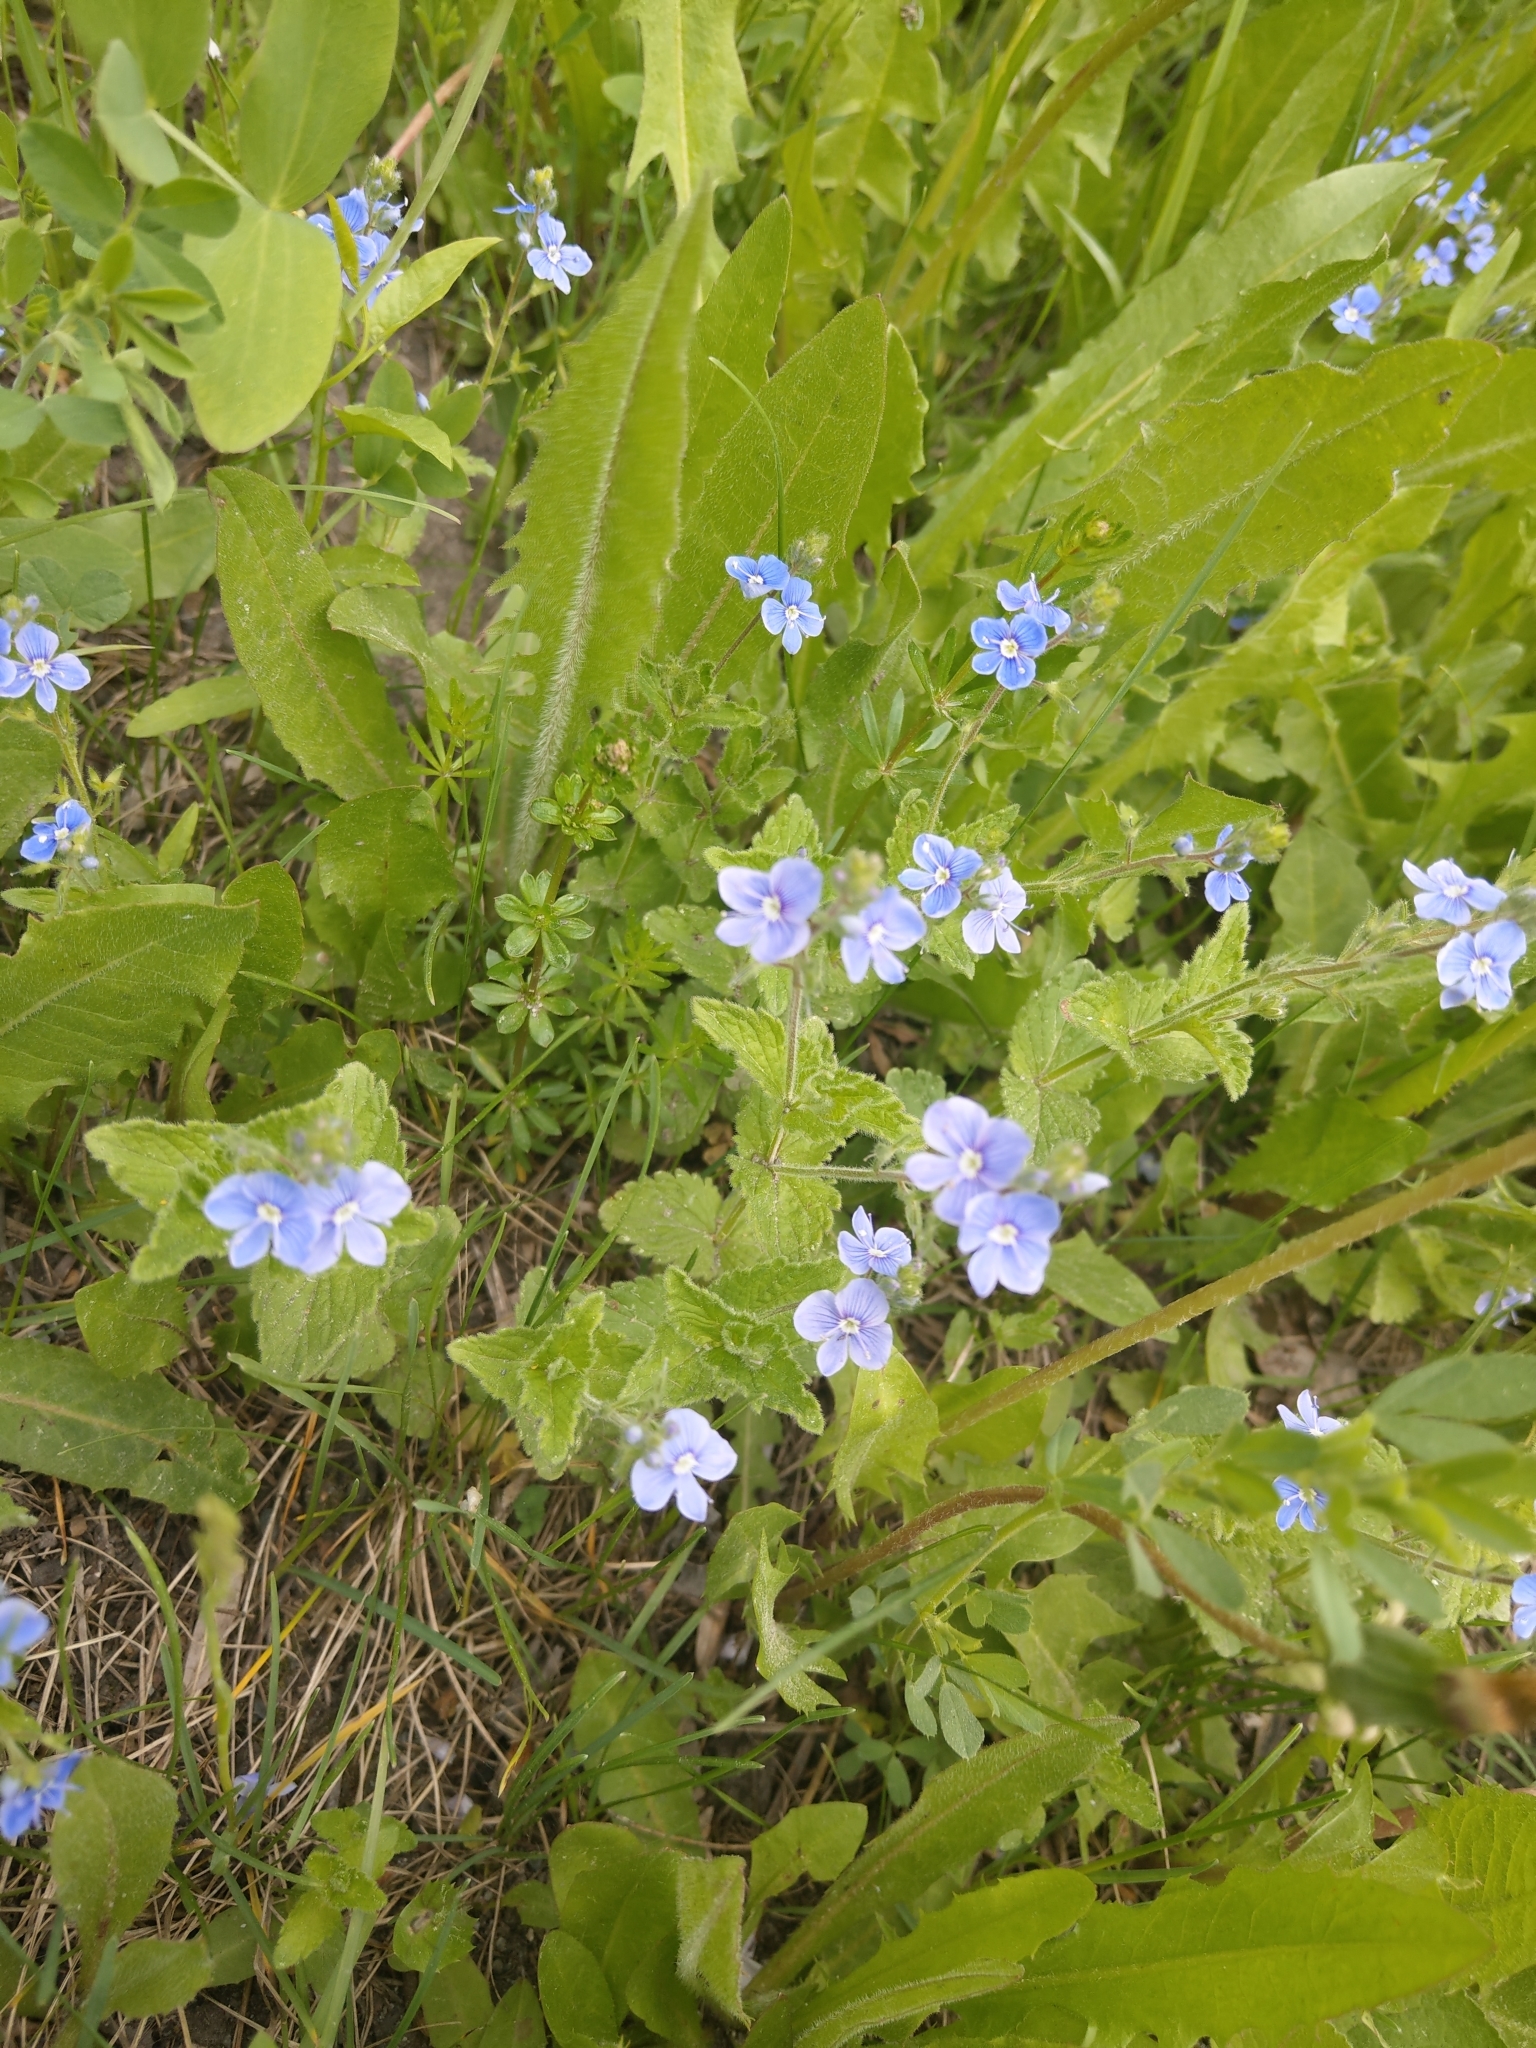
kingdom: Plantae
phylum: Tracheophyta
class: Magnoliopsida
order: Lamiales
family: Plantaginaceae
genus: Veronica
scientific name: Veronica chamaedrys
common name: Germander speedwell
